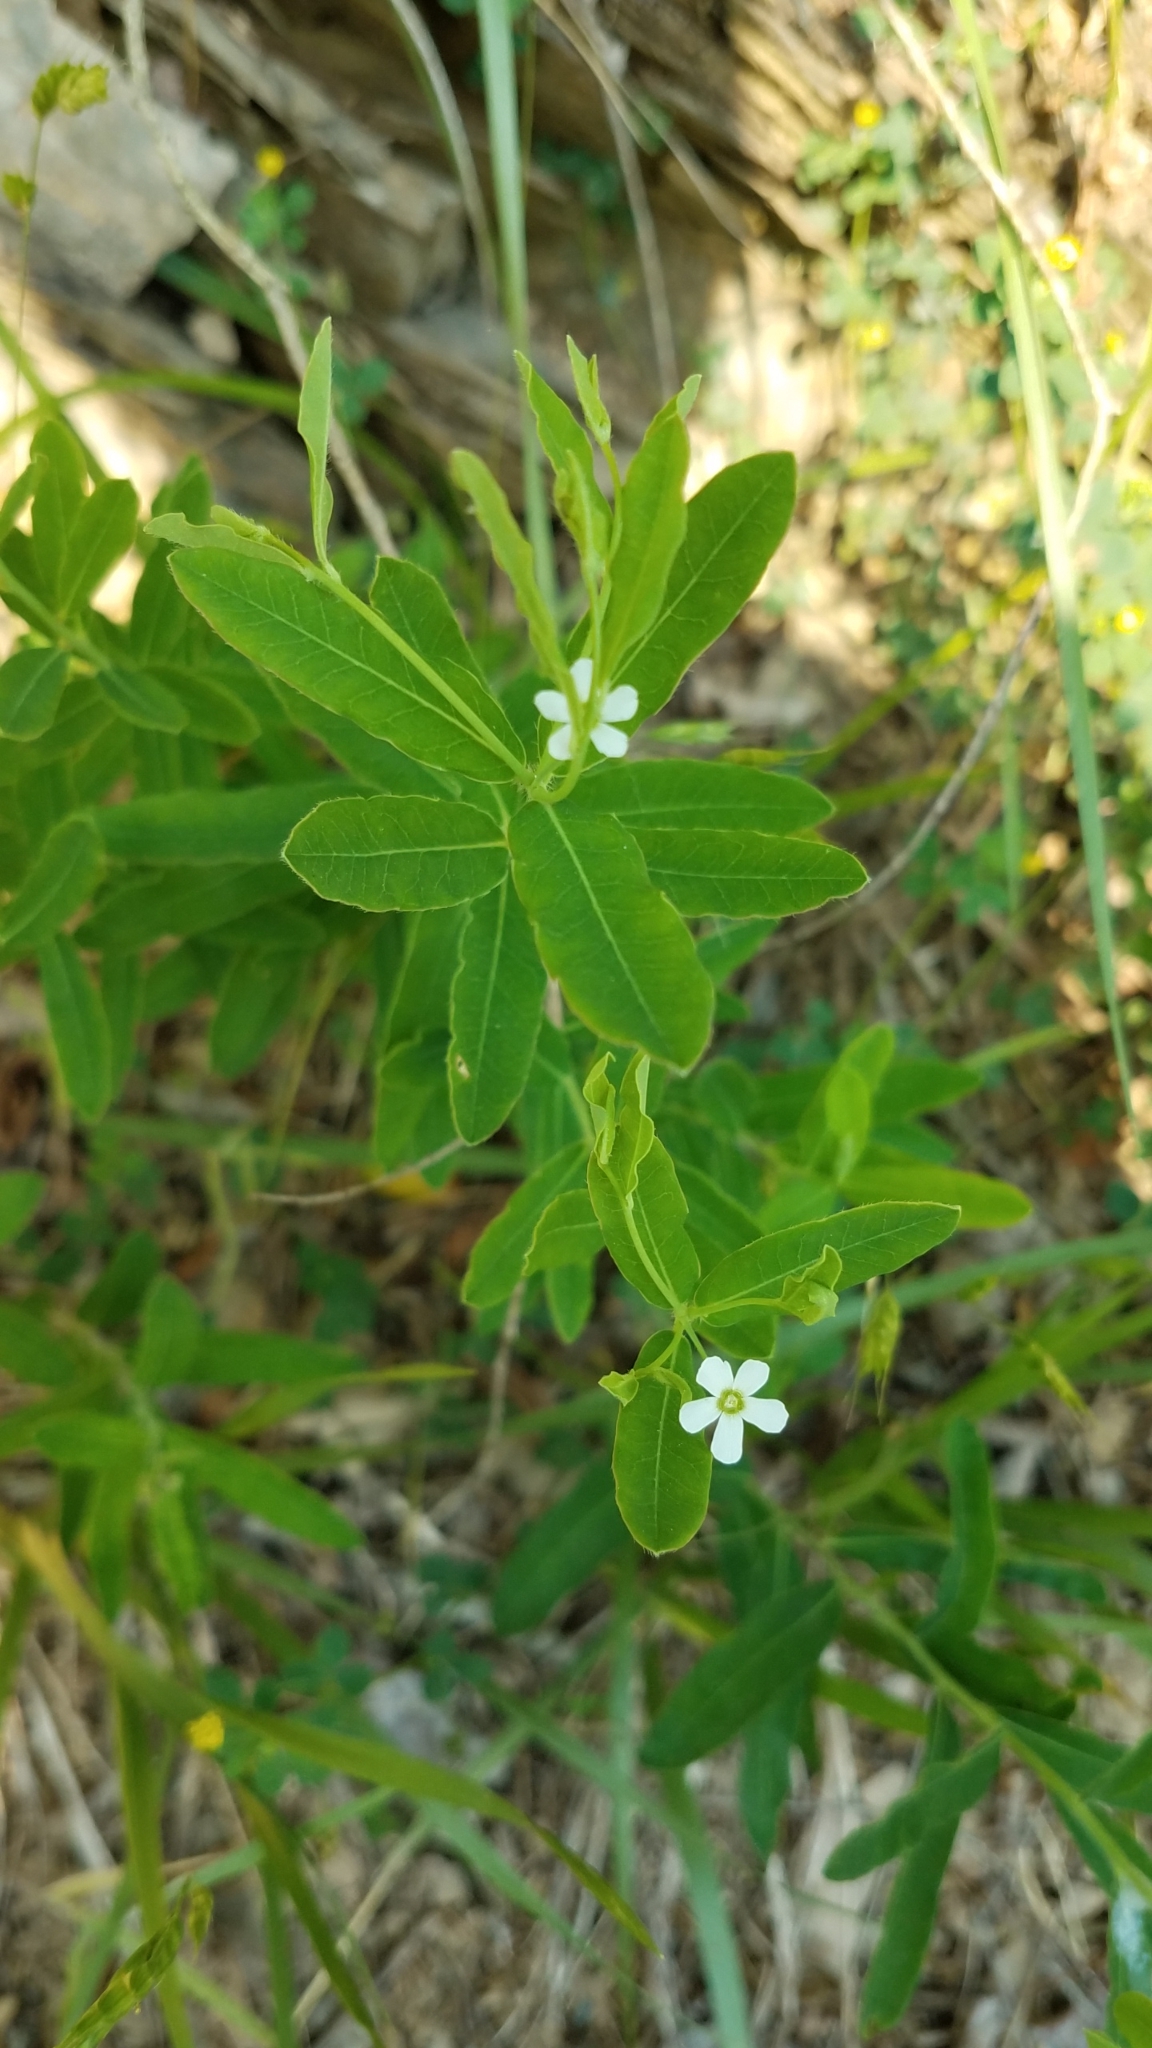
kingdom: Plantae
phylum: Tracheophyta
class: Magnoliopsida
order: Malpighiales
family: Euphorbiaceae
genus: Euphorbia
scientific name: Euphorbia corollata
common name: Flowering spurge
